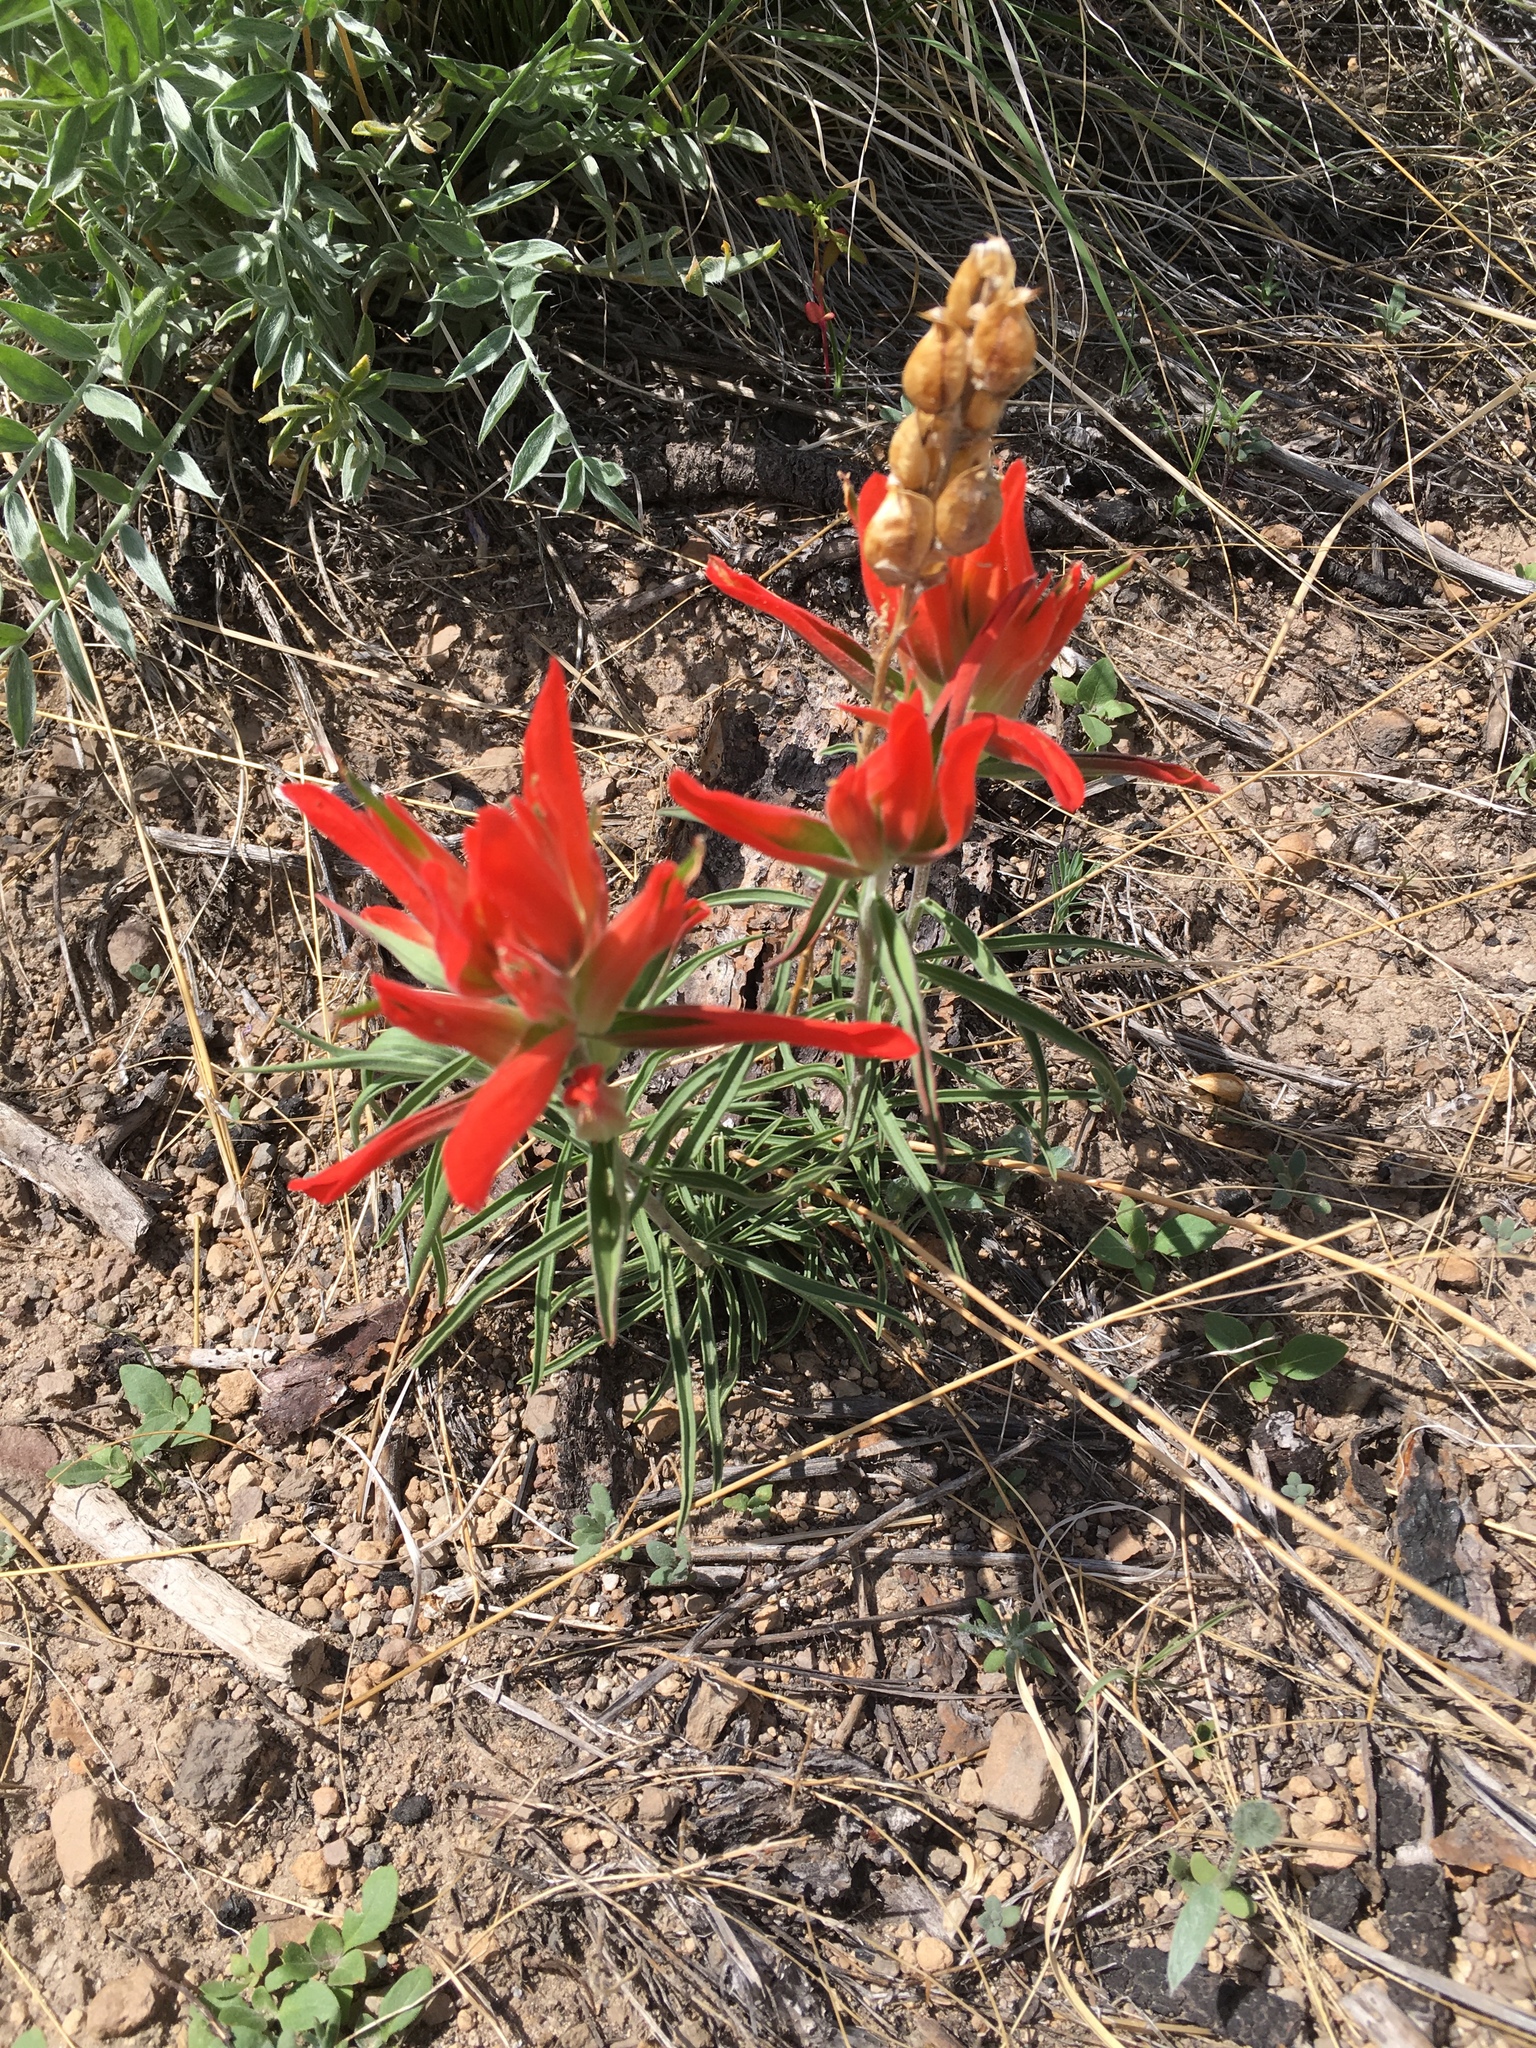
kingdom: Plantae
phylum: Tracheophyta
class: Magnoliopsida
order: Lamiales
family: Orobanchaceae
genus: Castilleja
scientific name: Castilleja integra
